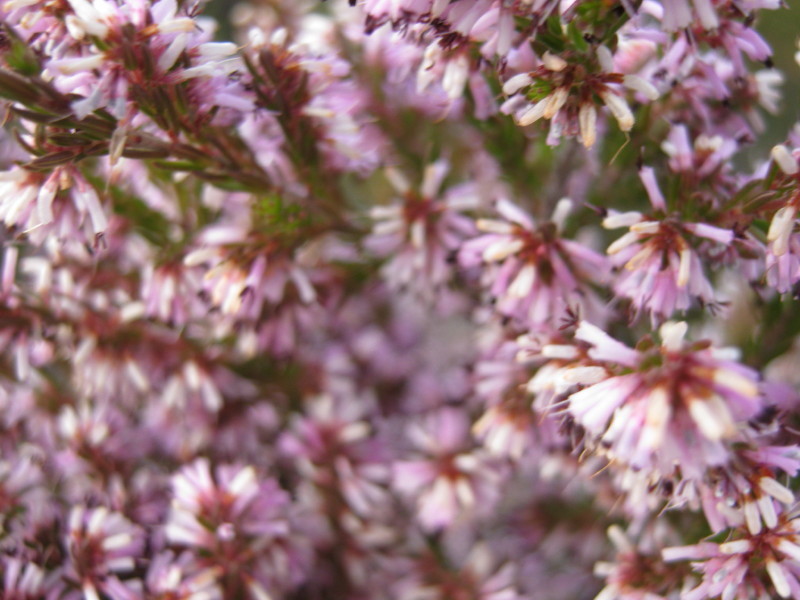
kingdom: Plantae
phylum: Tracheophyta
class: Magnoliopsida
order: Ericales
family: Ericaceae
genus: Erica
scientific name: Erica uberiflora
